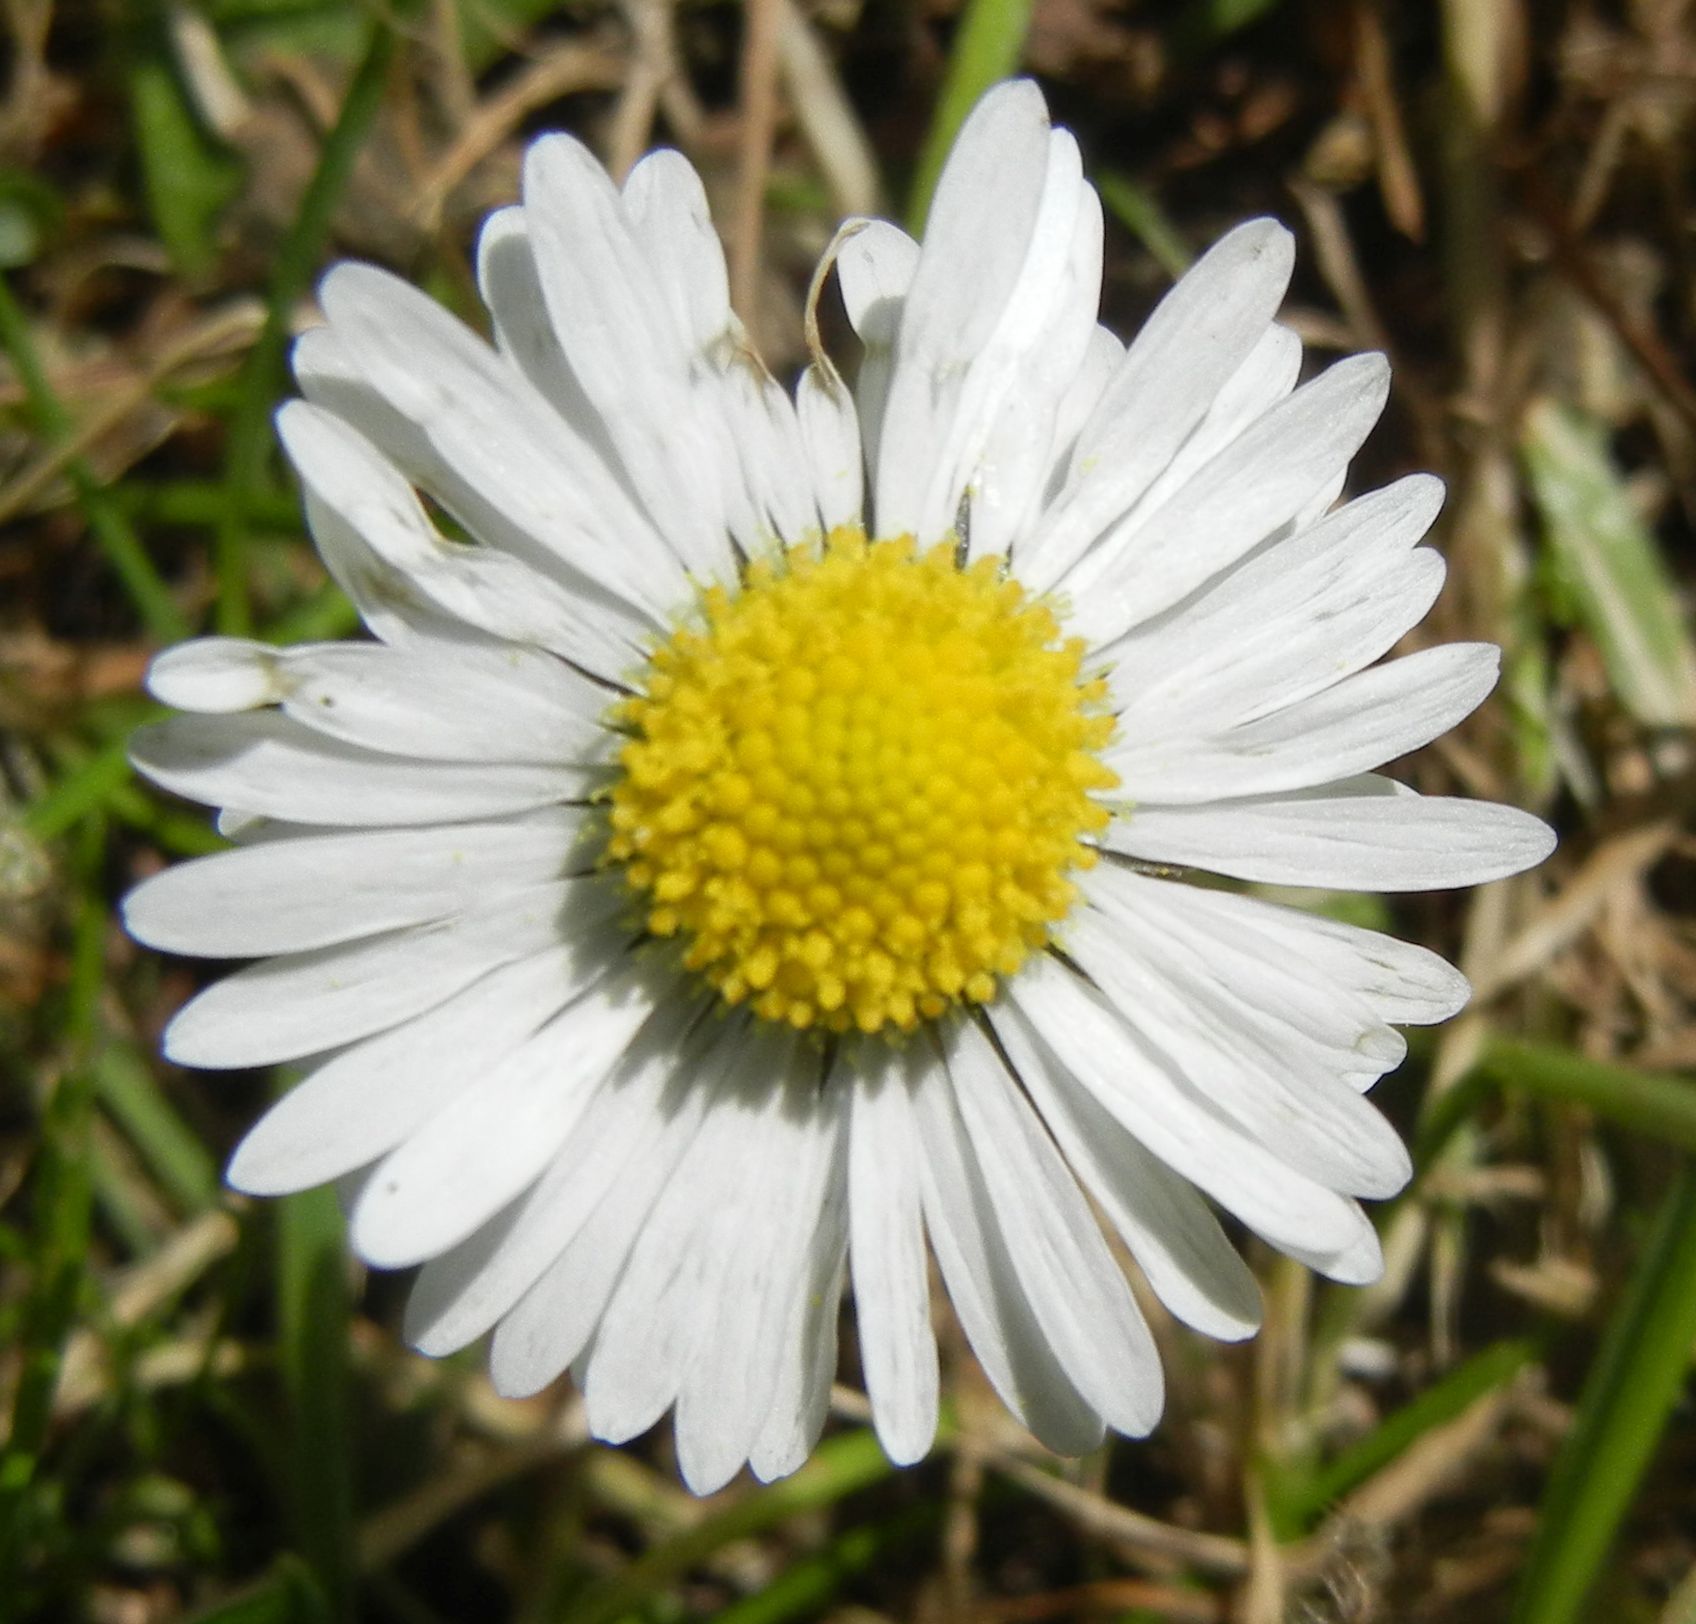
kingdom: Plantae
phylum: Tracheophyta
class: Magnoliopsida
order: Asterales
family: Asteraceae
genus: Bellis
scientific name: Bellis perennis
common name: Lawndaisy
